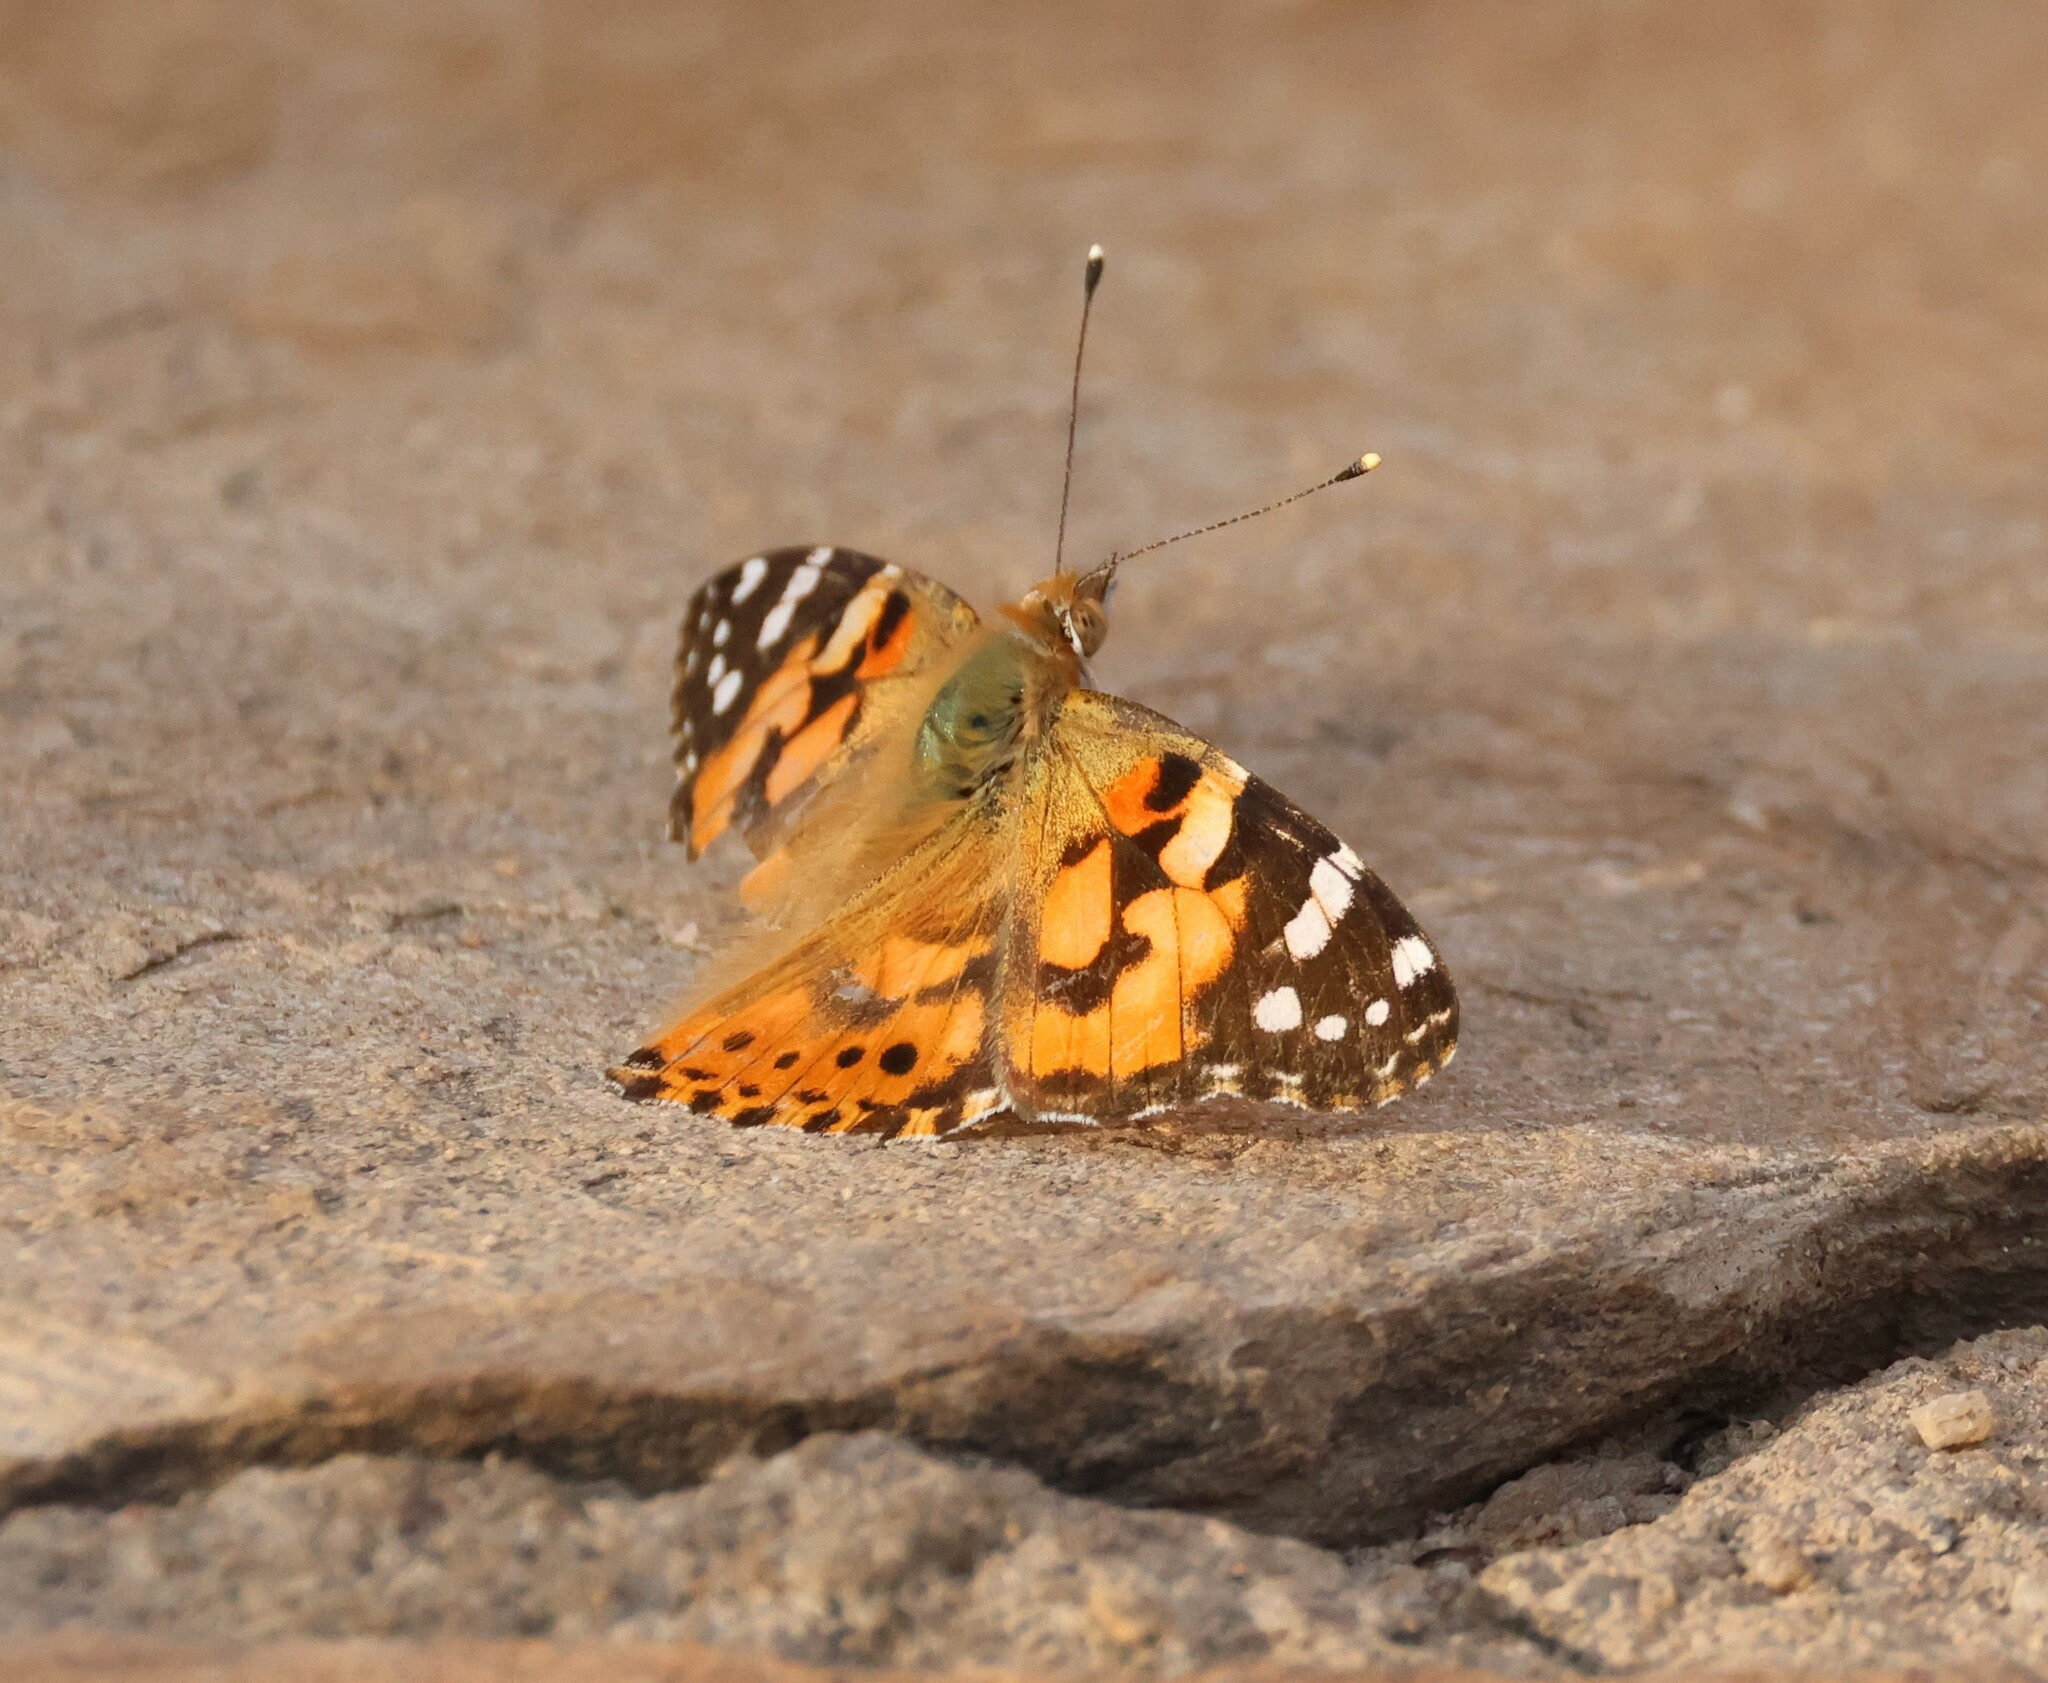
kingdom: Animalia
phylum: Arthropoda
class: Insecta
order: Lepidoptera
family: Nymphalidae
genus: Vanessa
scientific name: Vanessa cardui
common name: Painted lady
